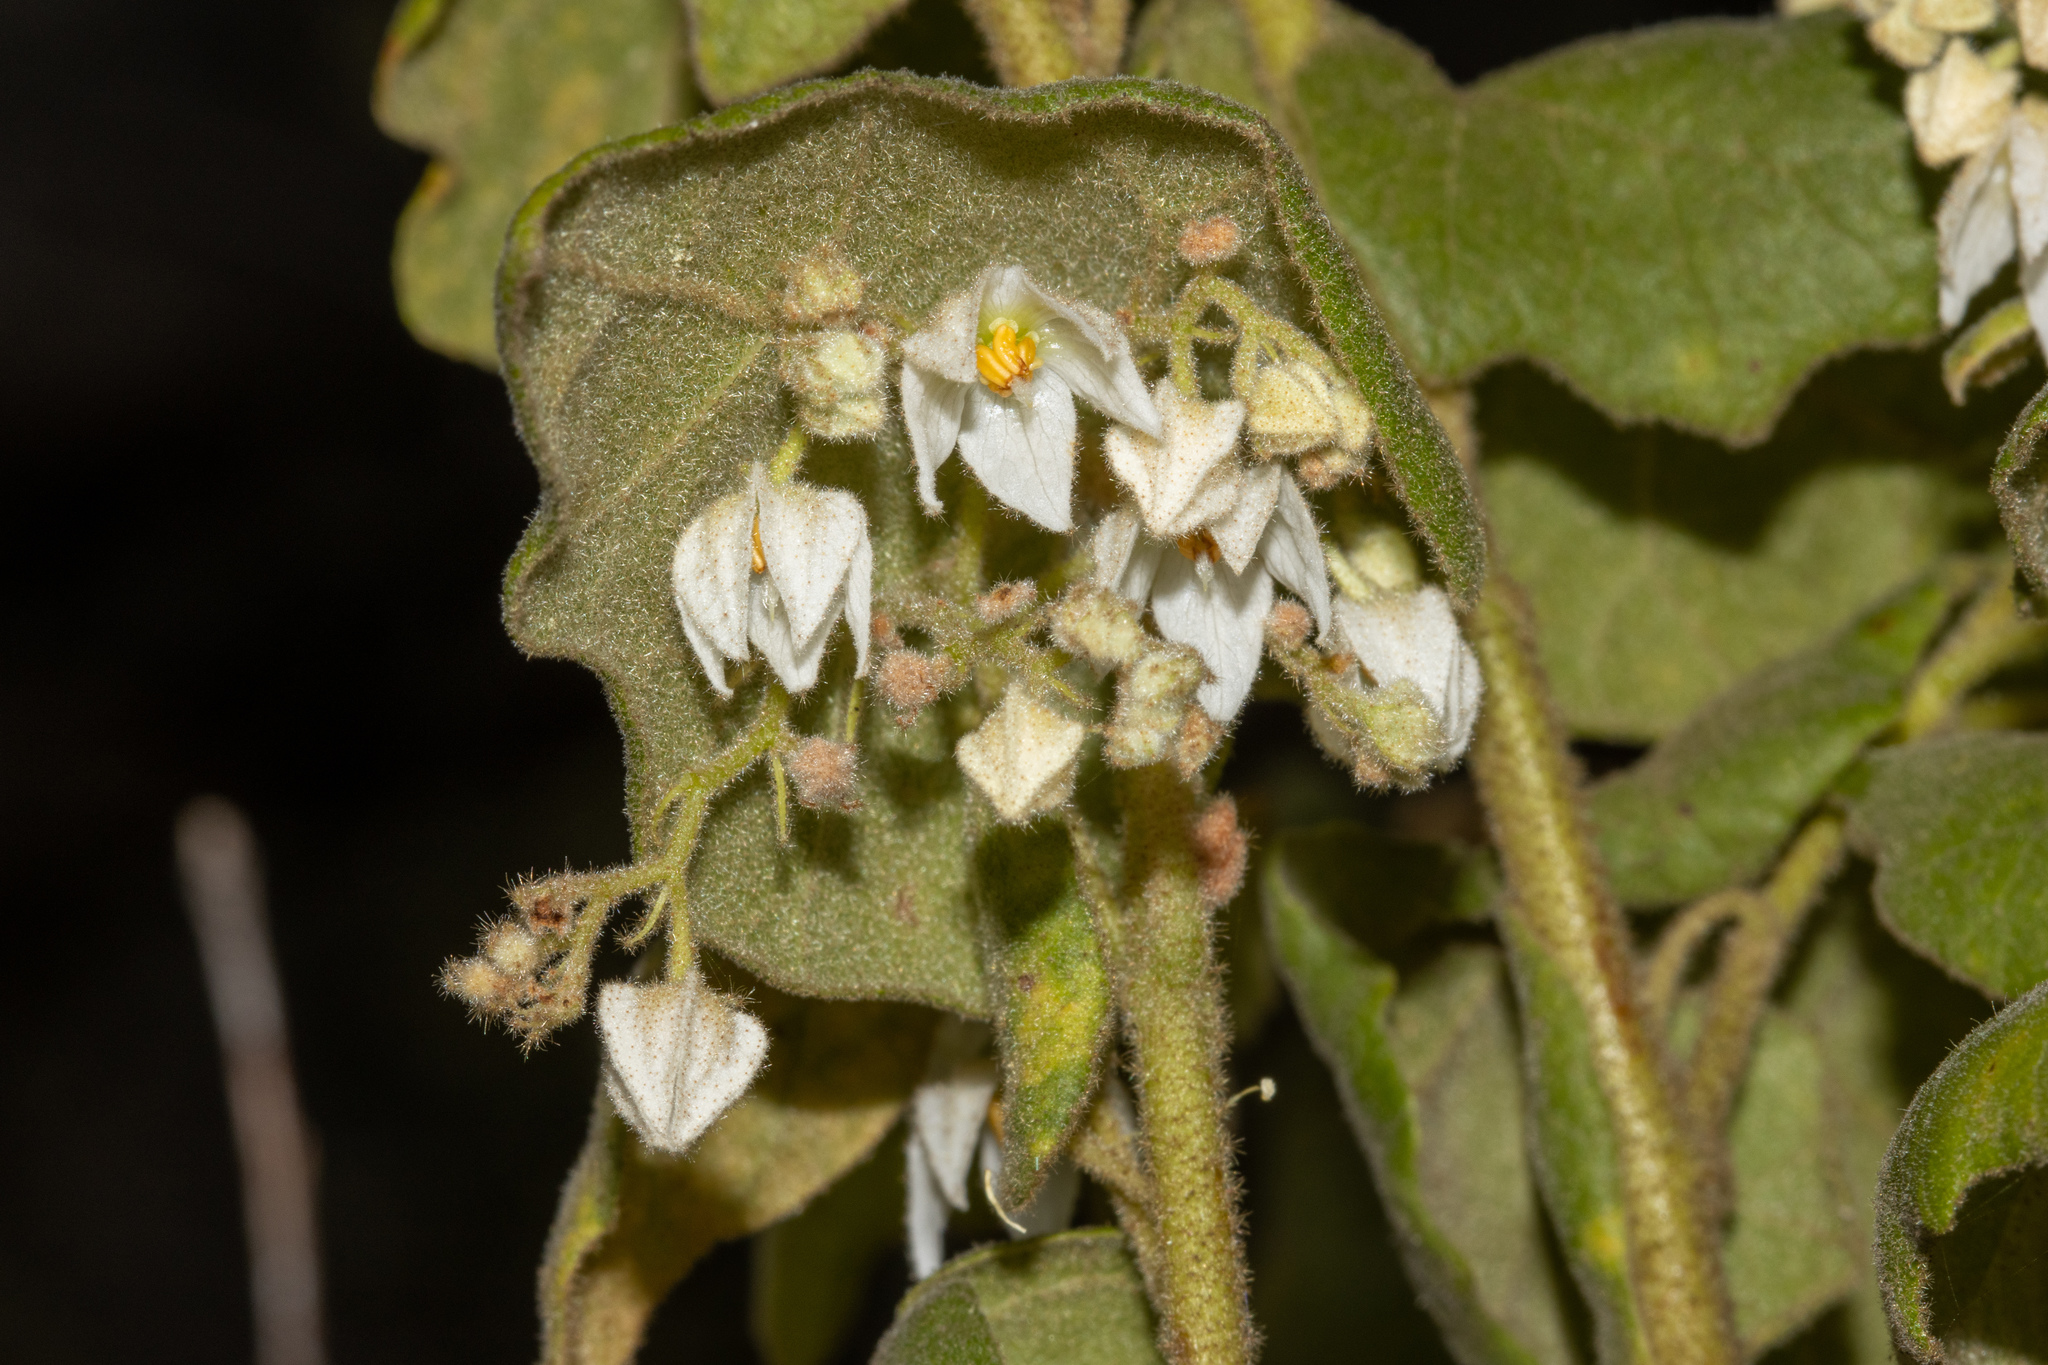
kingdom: Plantae
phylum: Tracheophyta
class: Magnoliopsida
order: Malvales
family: Malvaceae
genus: Lasiopetalum
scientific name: Lasiopetalum schulzenii
